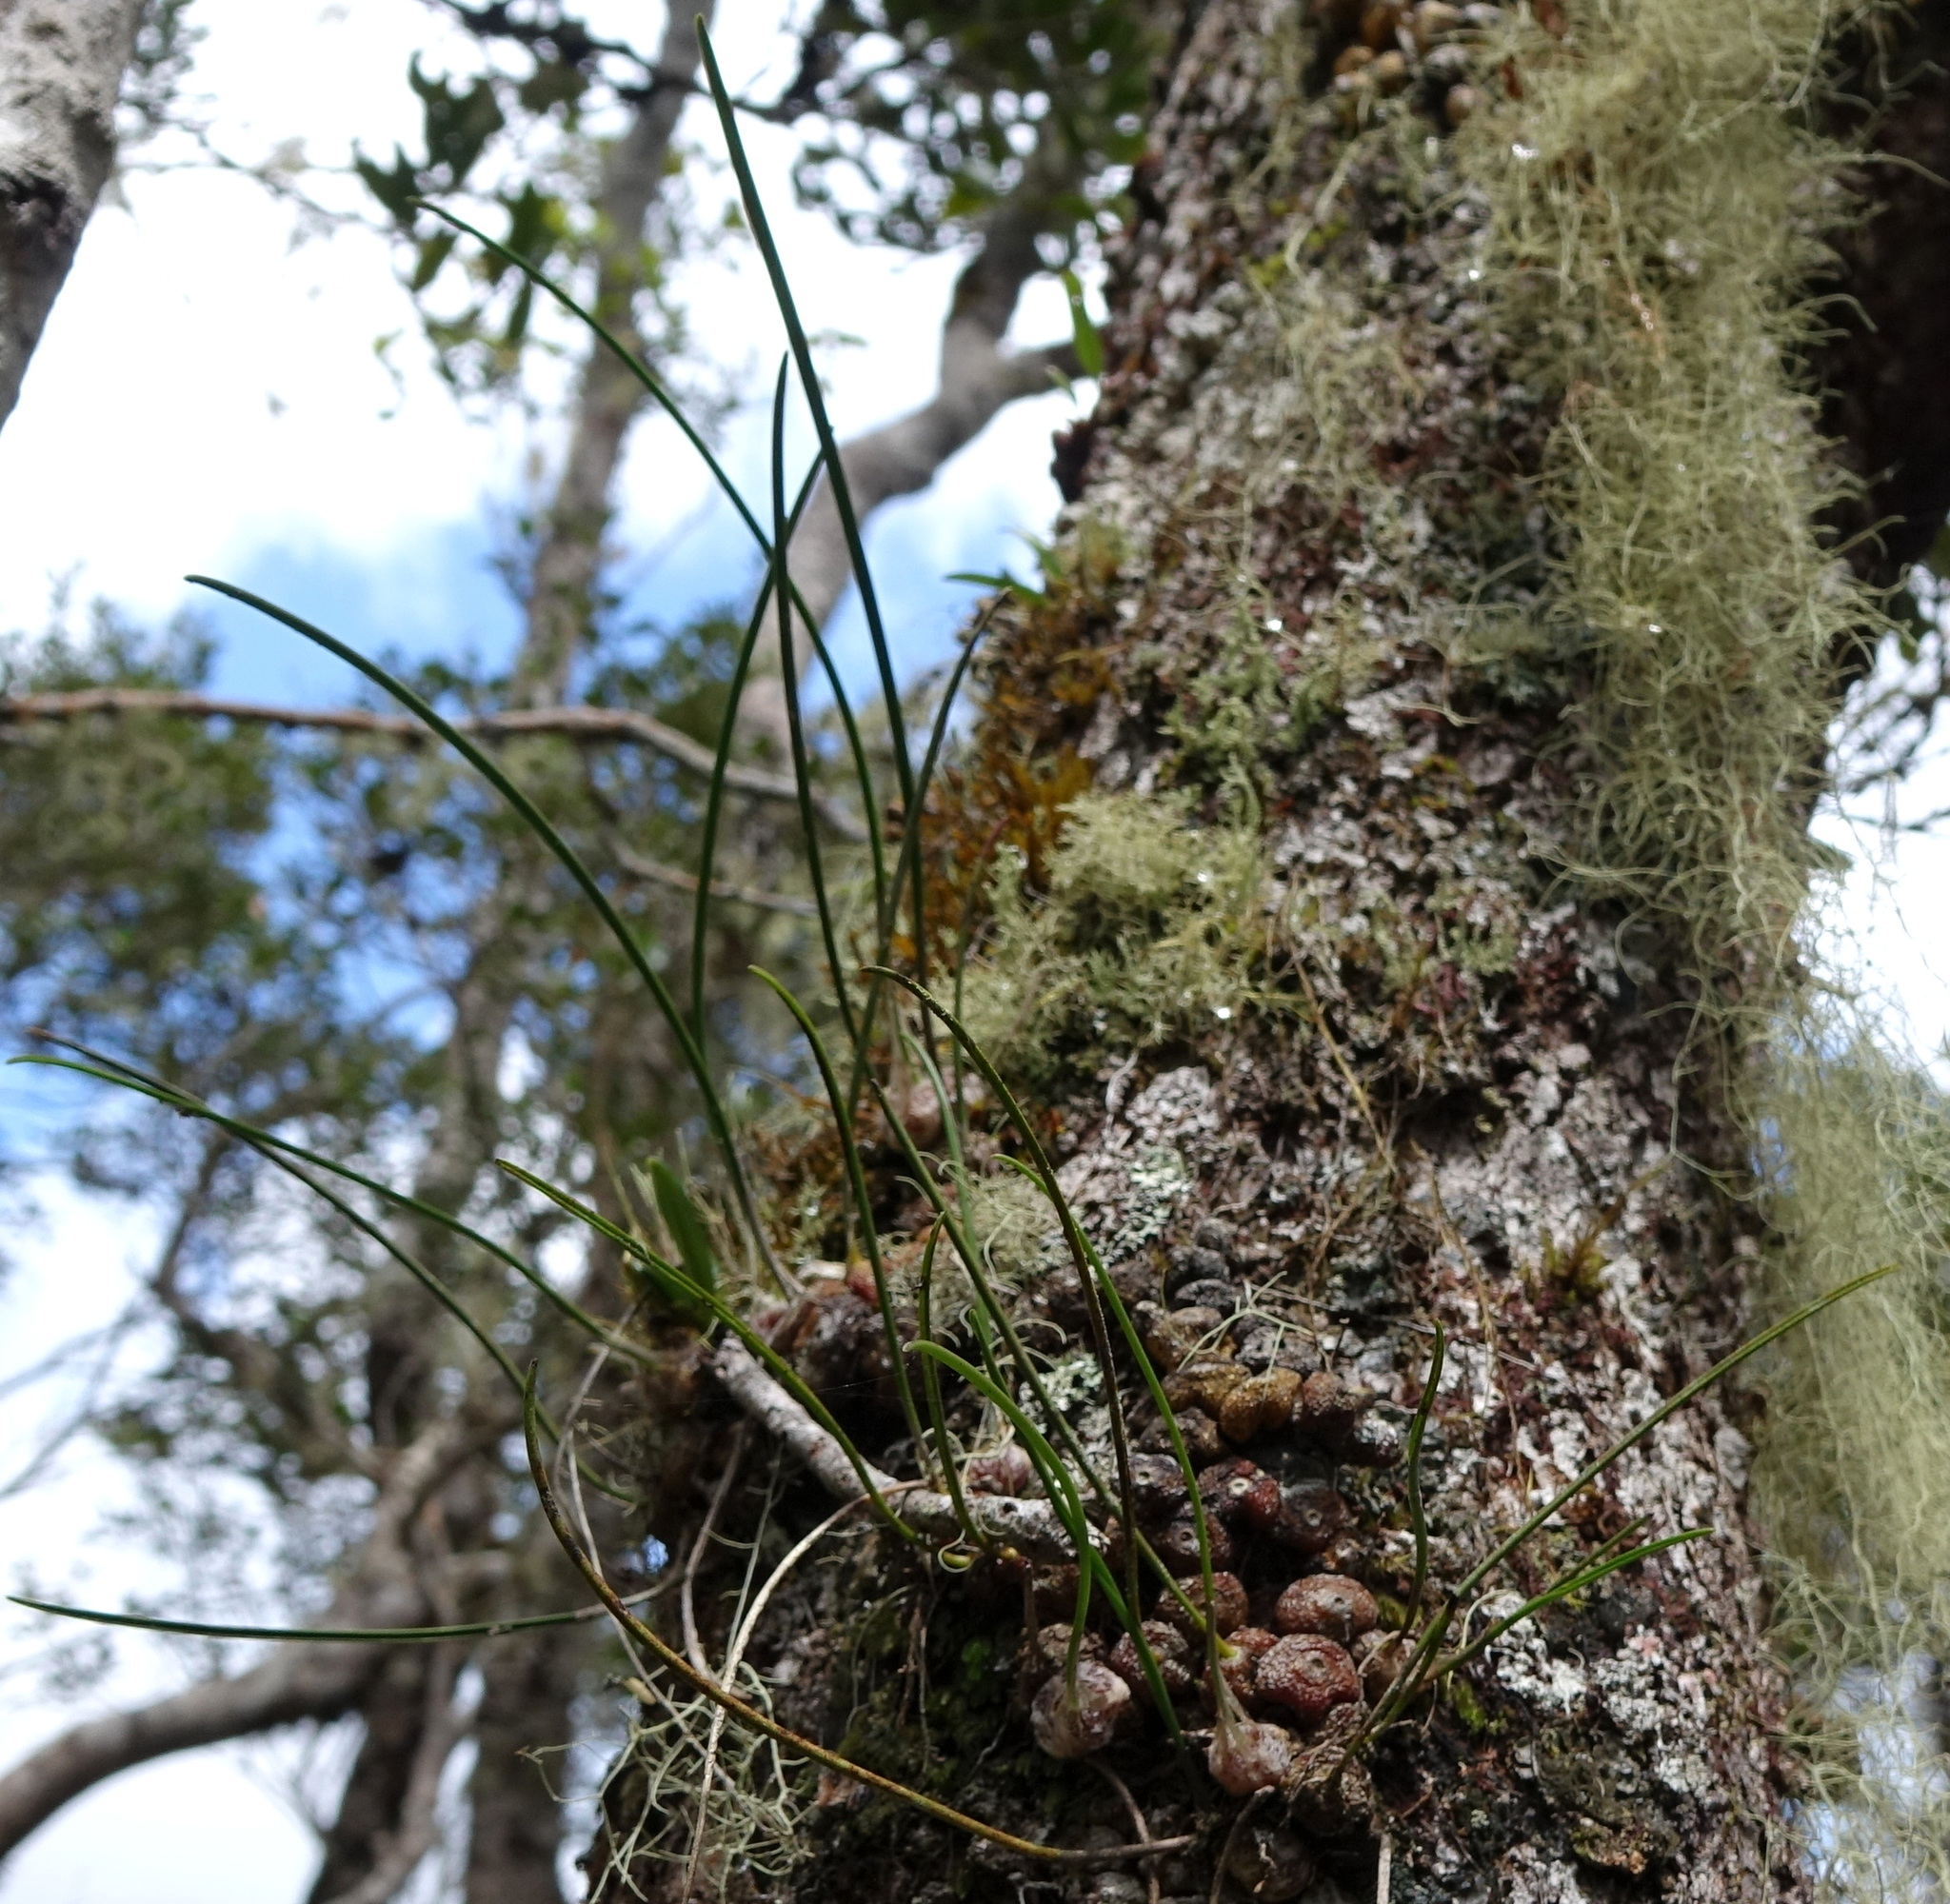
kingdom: Plantae
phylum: Tracheophyta
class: Liliopsida
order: Asparagales
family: Orchidaceae
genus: Bulbophyllum
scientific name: Bulbophyllum leandrianum
